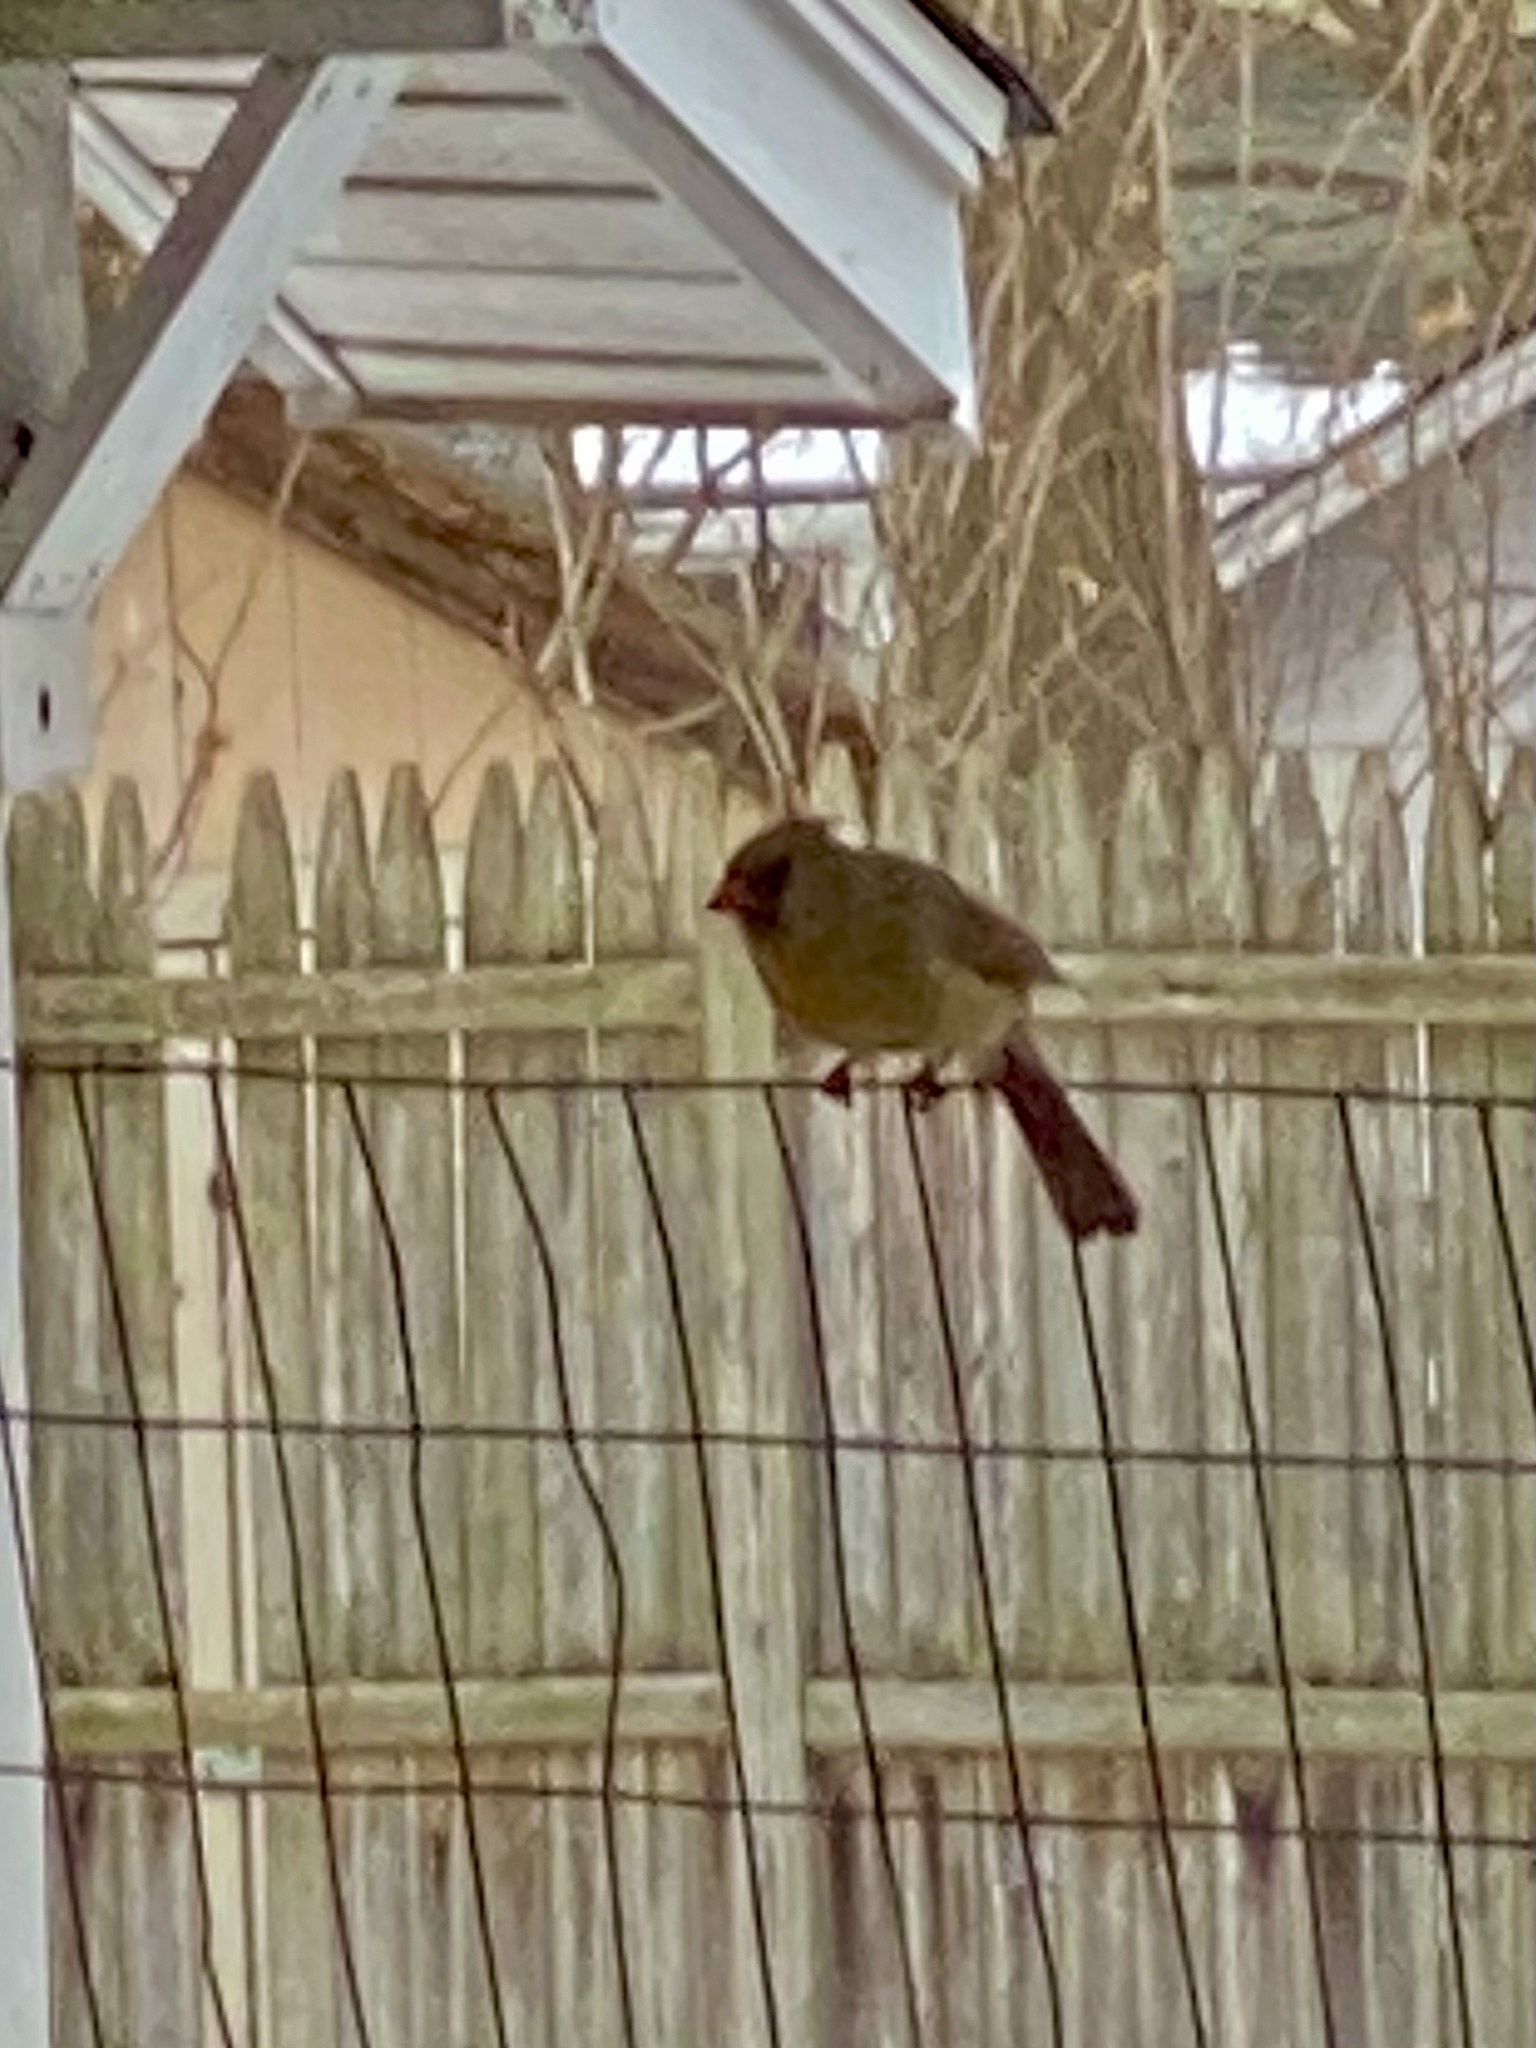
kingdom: Animalia
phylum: Chordata
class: Aves
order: Passeriformes
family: Cardinalidae
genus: Cardinalis
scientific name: Cardinalis cardinalis
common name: Northern cardinal
